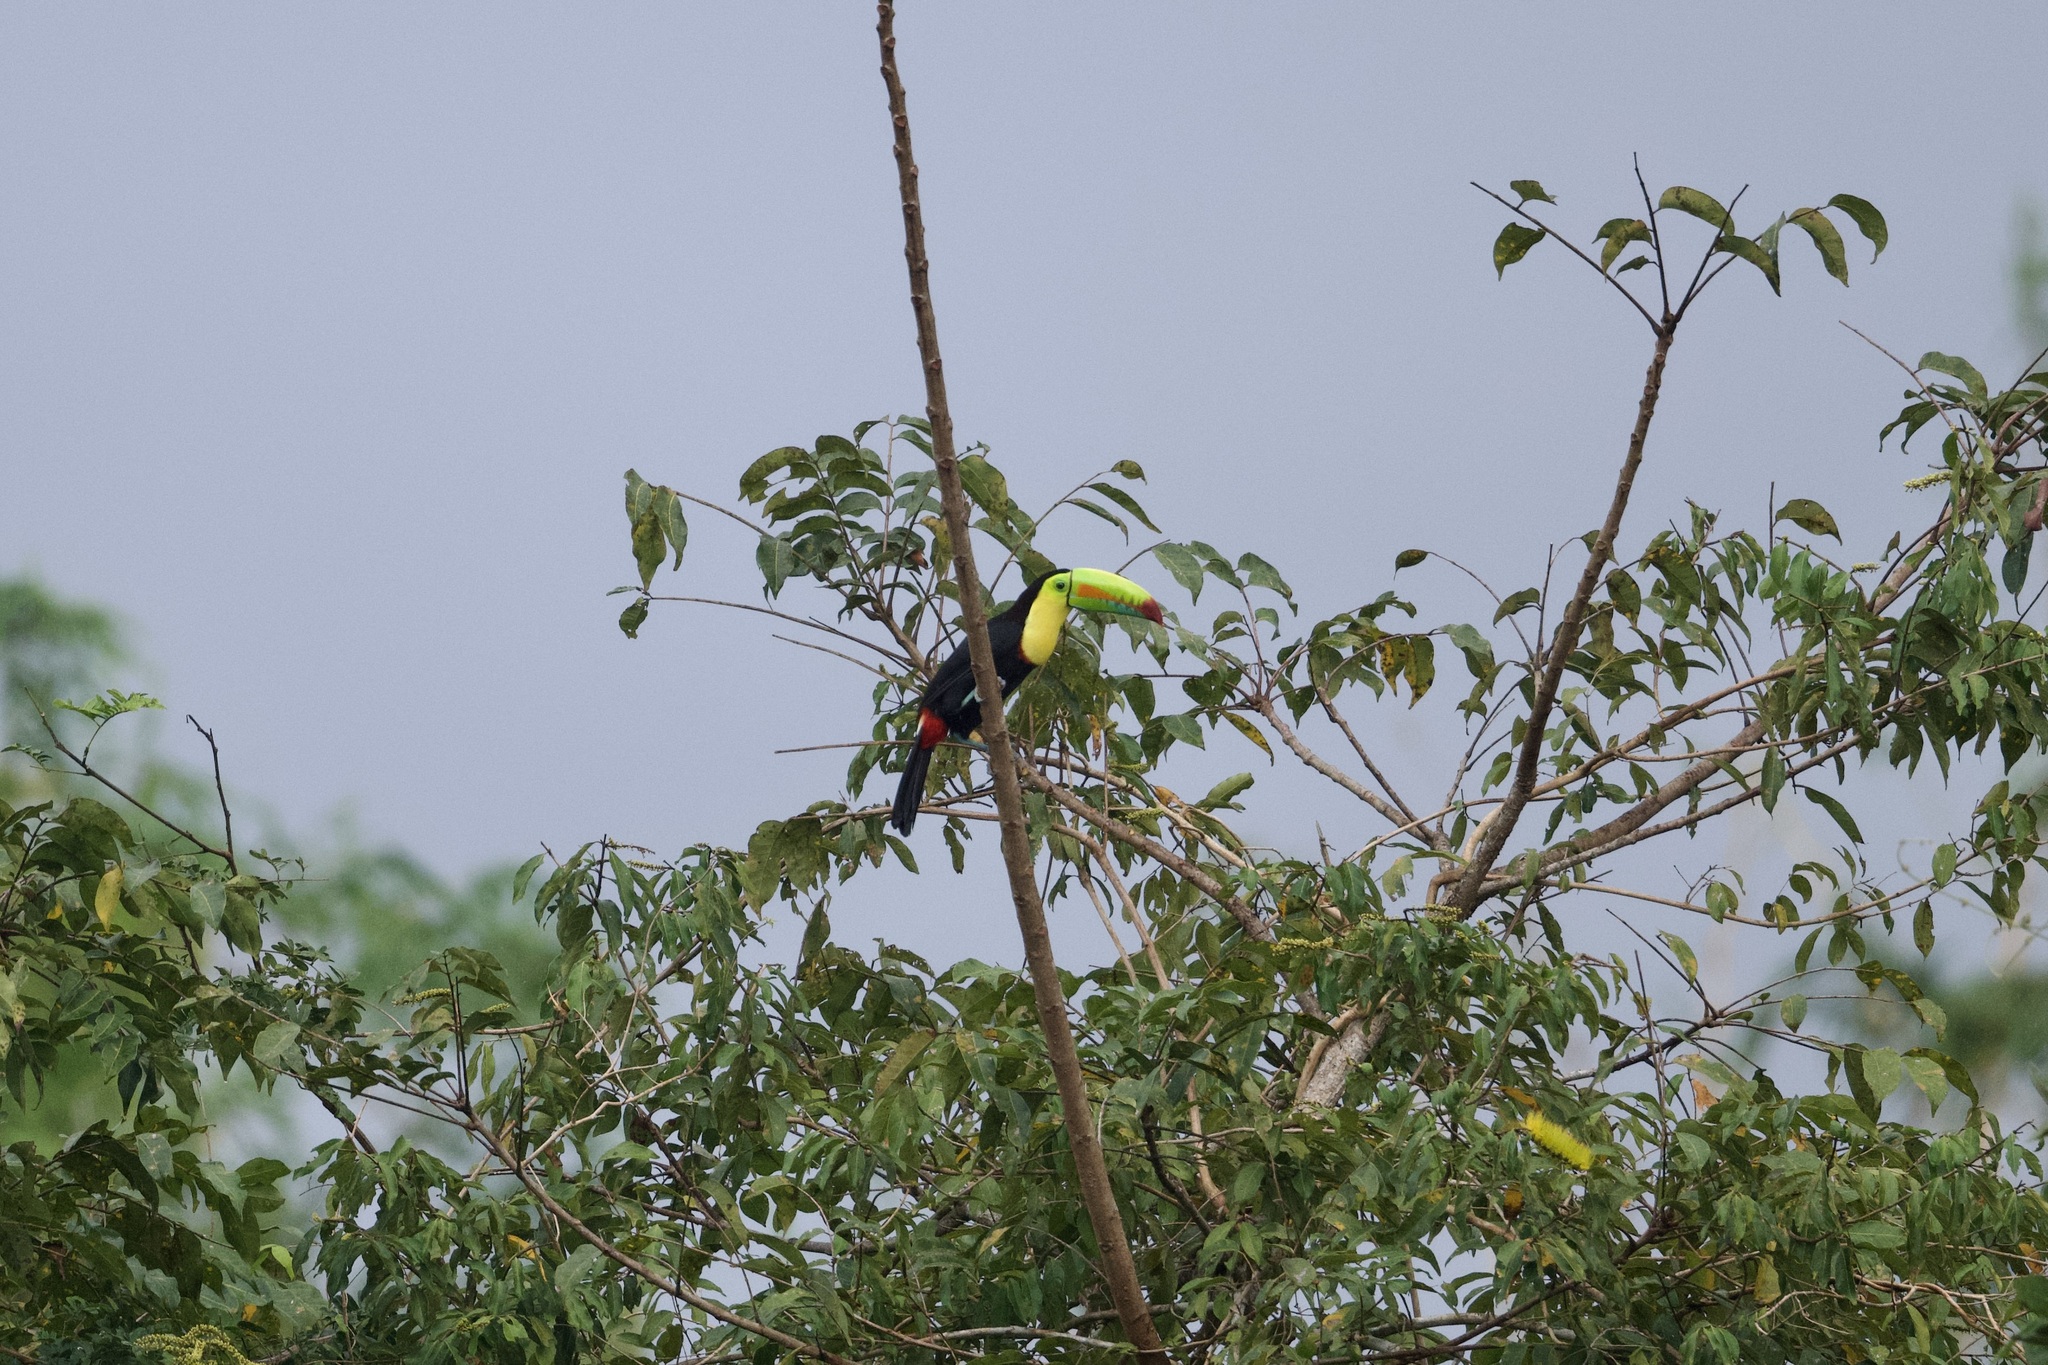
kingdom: Animalia
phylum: Chordata
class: Aves
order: Piciformes
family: Ramphastidae
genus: Ramphastos
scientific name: Ramphastos sulfuratus
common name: Keel-billed toucan
